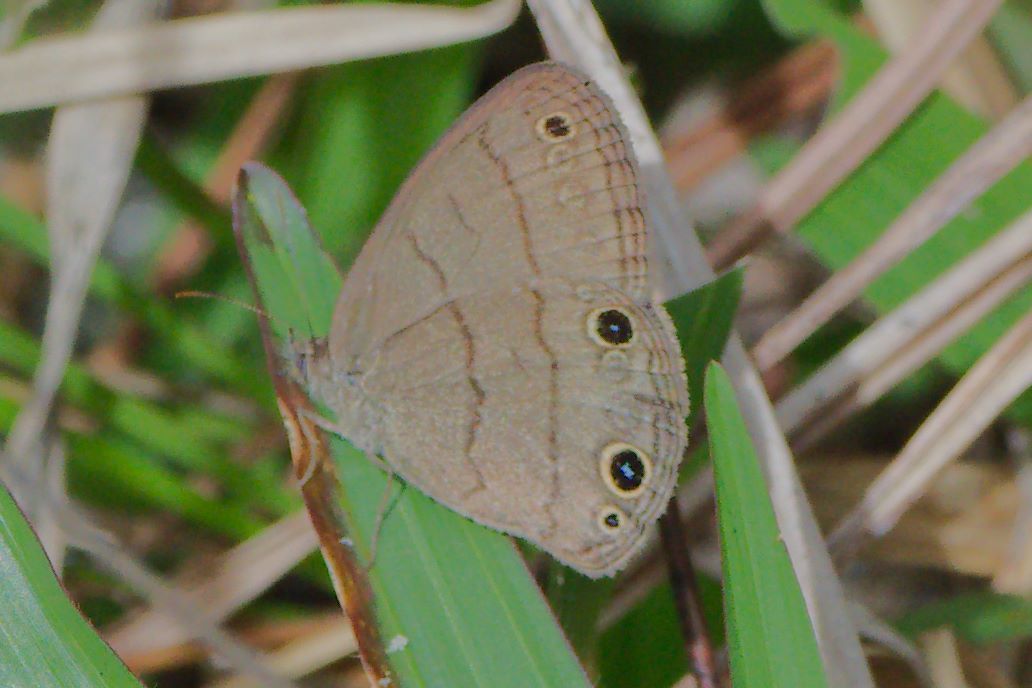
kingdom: Animalia
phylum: Arthropoda
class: Insecta
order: Lepidoptera
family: Nymphalidae
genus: Hermeuptychia
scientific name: Hermeuptychia hermes
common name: Hermes satyr
